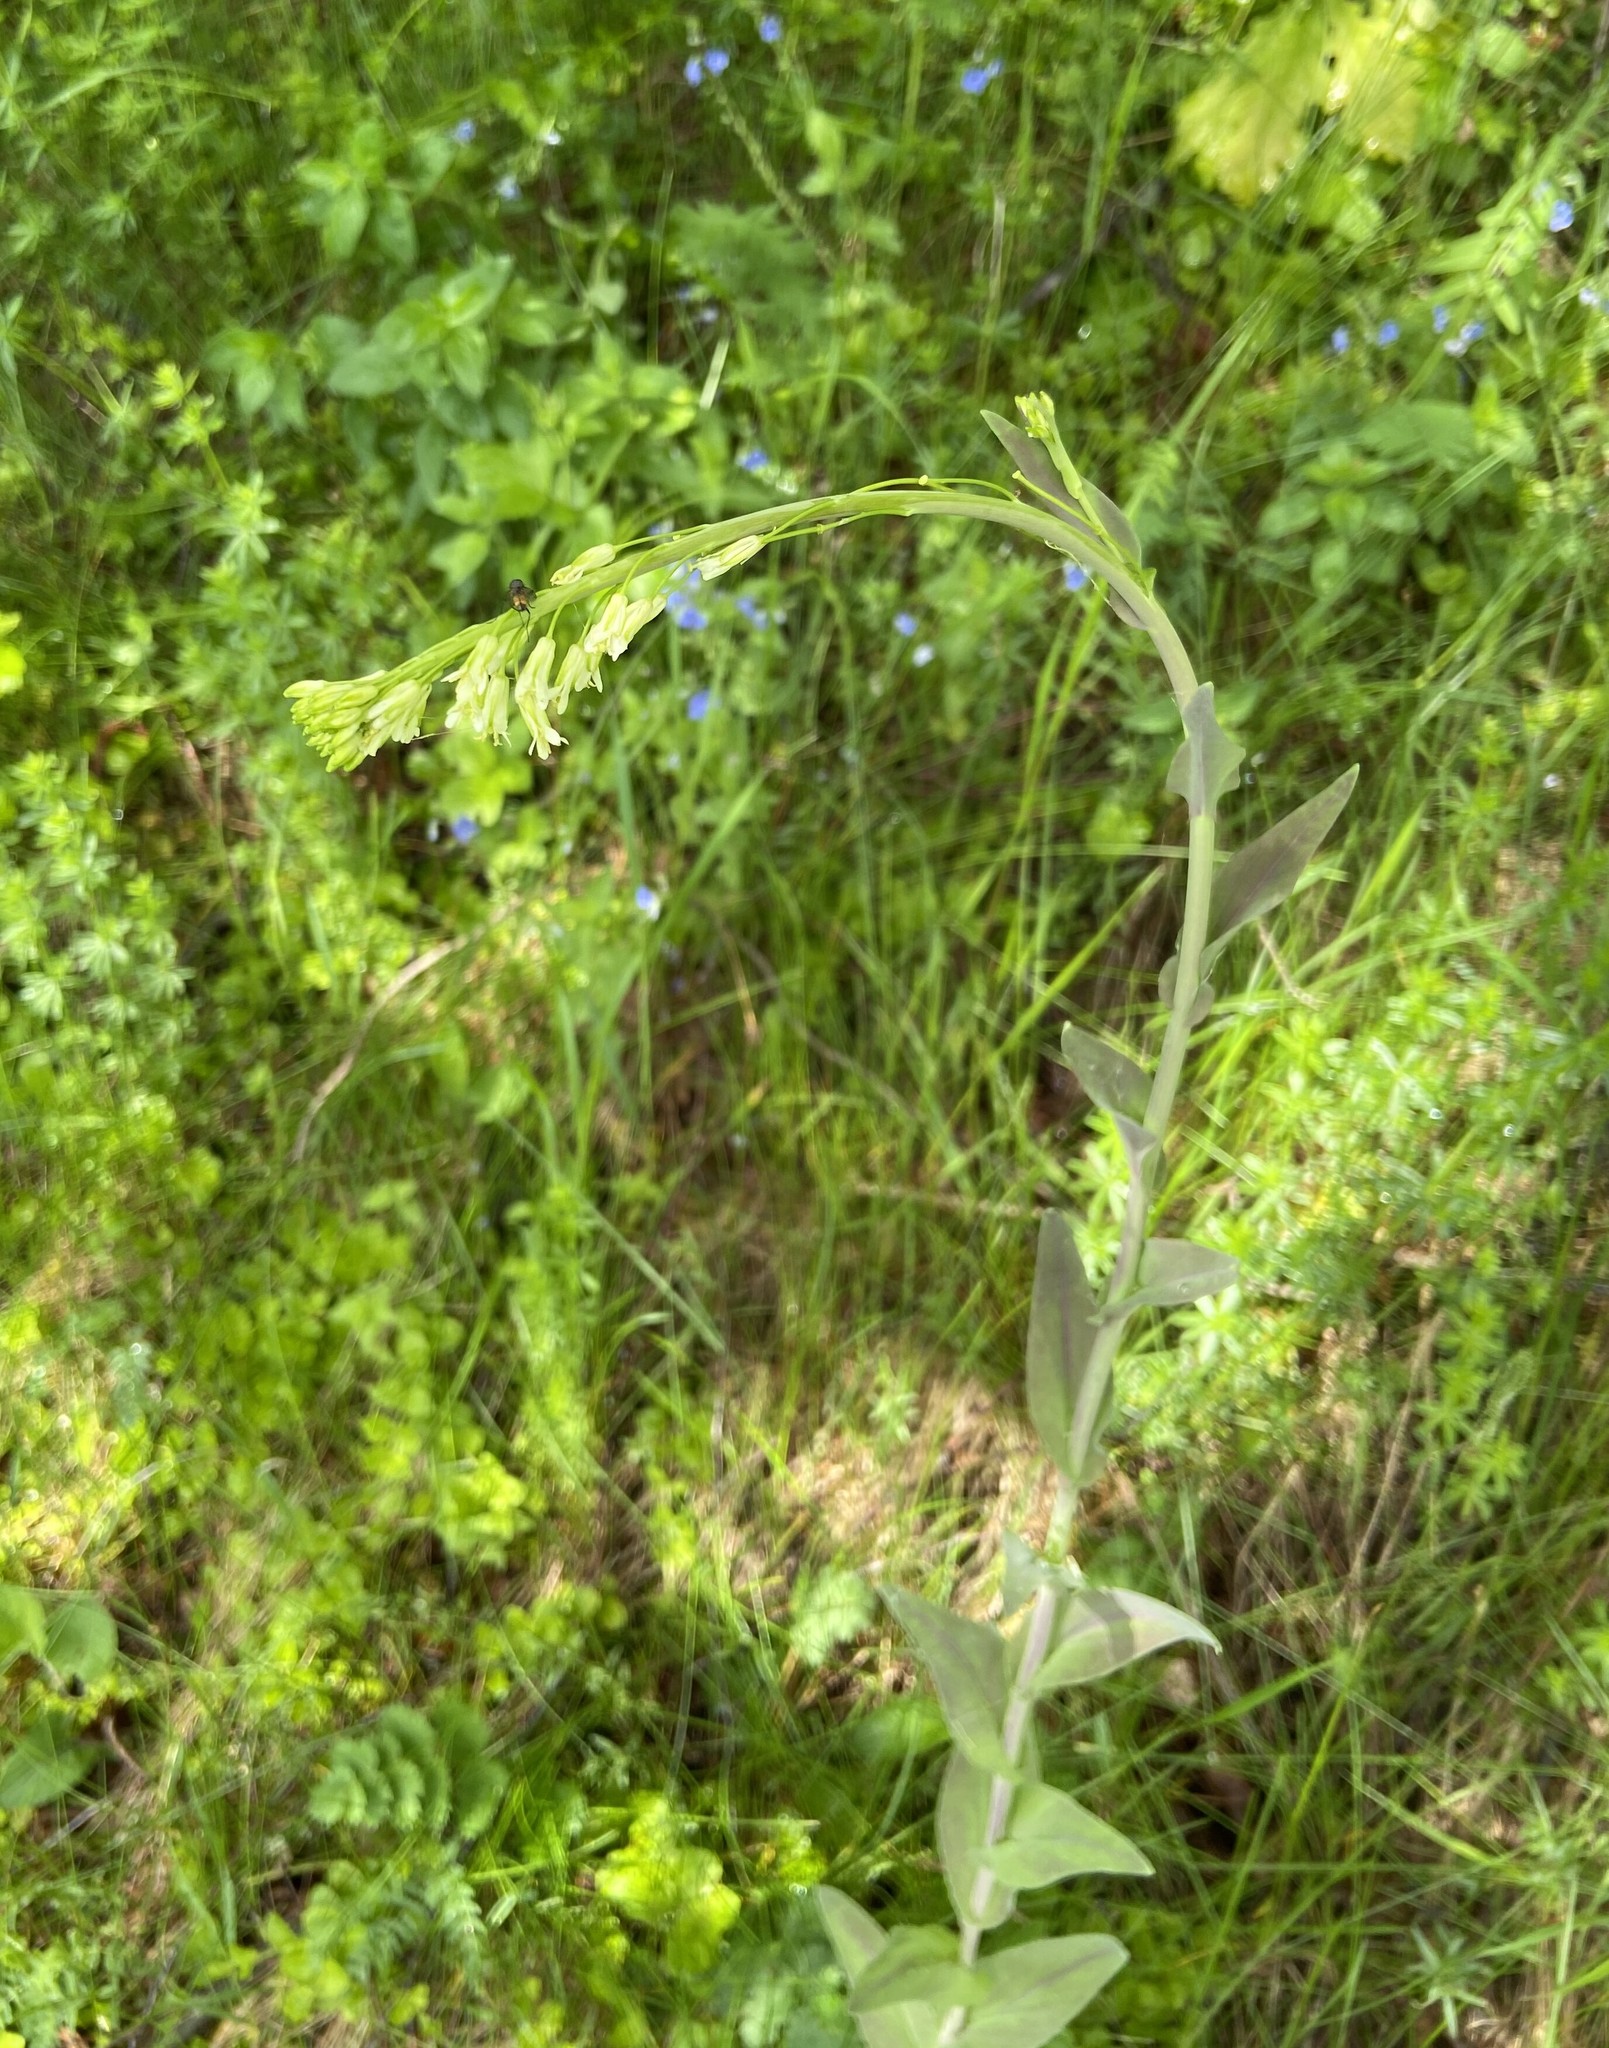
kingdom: Plantae
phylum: Tracheophyta
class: Magnoliopsida
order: Brassicales
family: Brassicaceae
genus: Turritis
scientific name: Turritis glabra
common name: Tower rockcress
